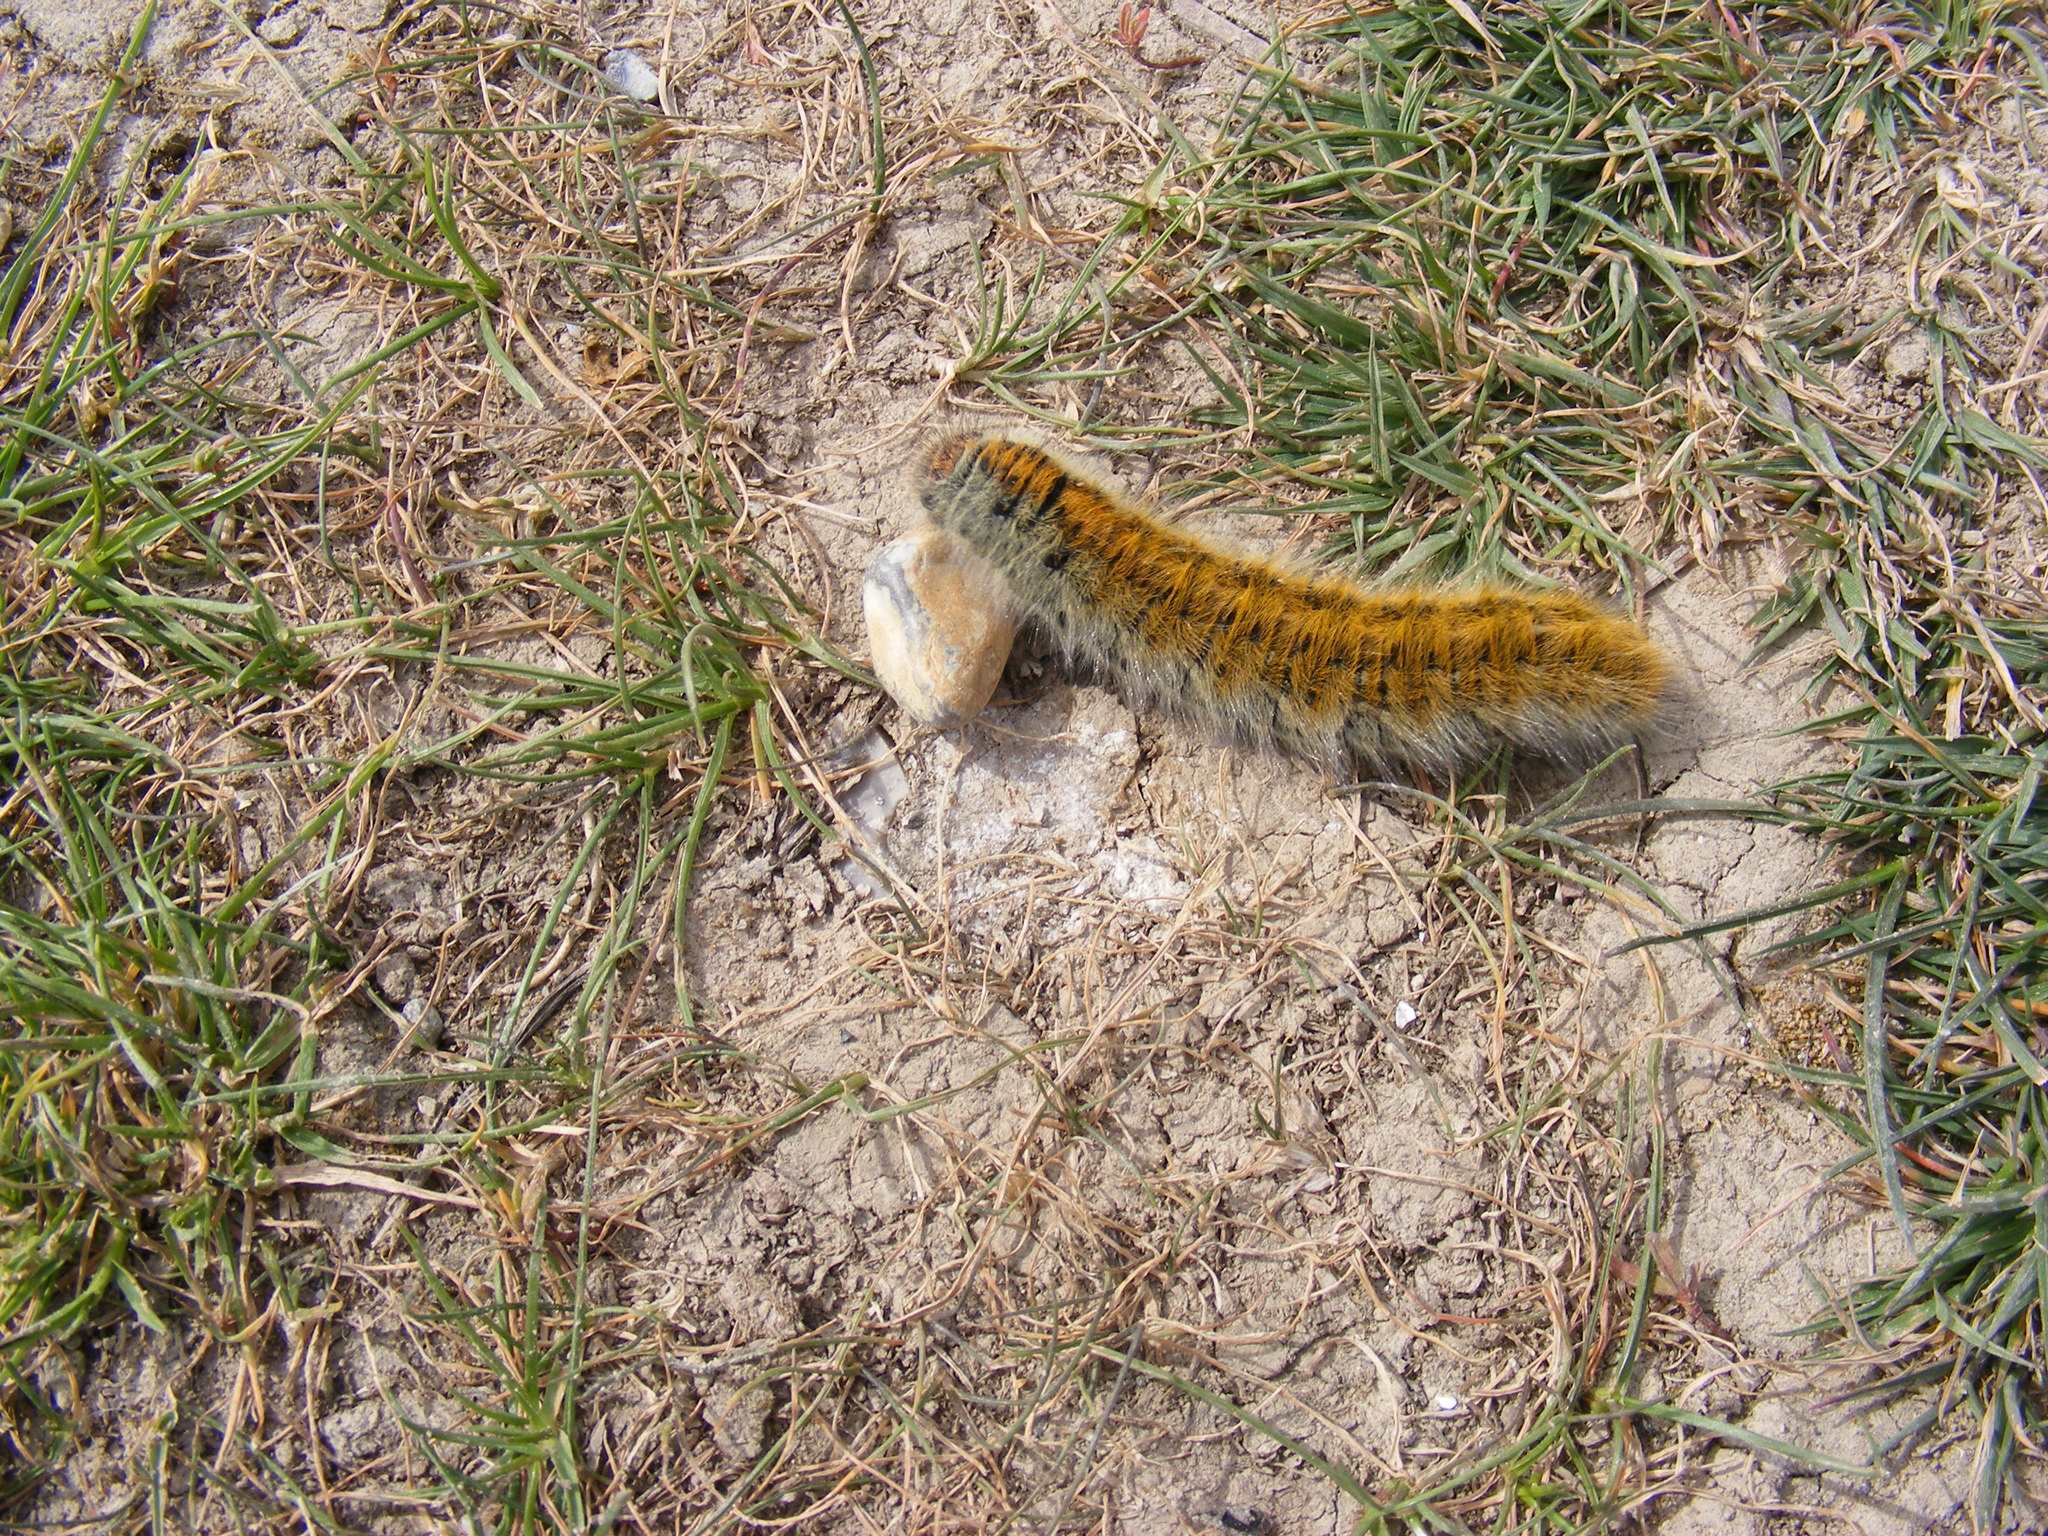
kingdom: Animalia
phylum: Arthropoda
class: Insecta
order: Lepidoptera
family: Lasiocampidae
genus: Lasiocampa
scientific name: Lasiocampa trifolii
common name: Grass eggar
